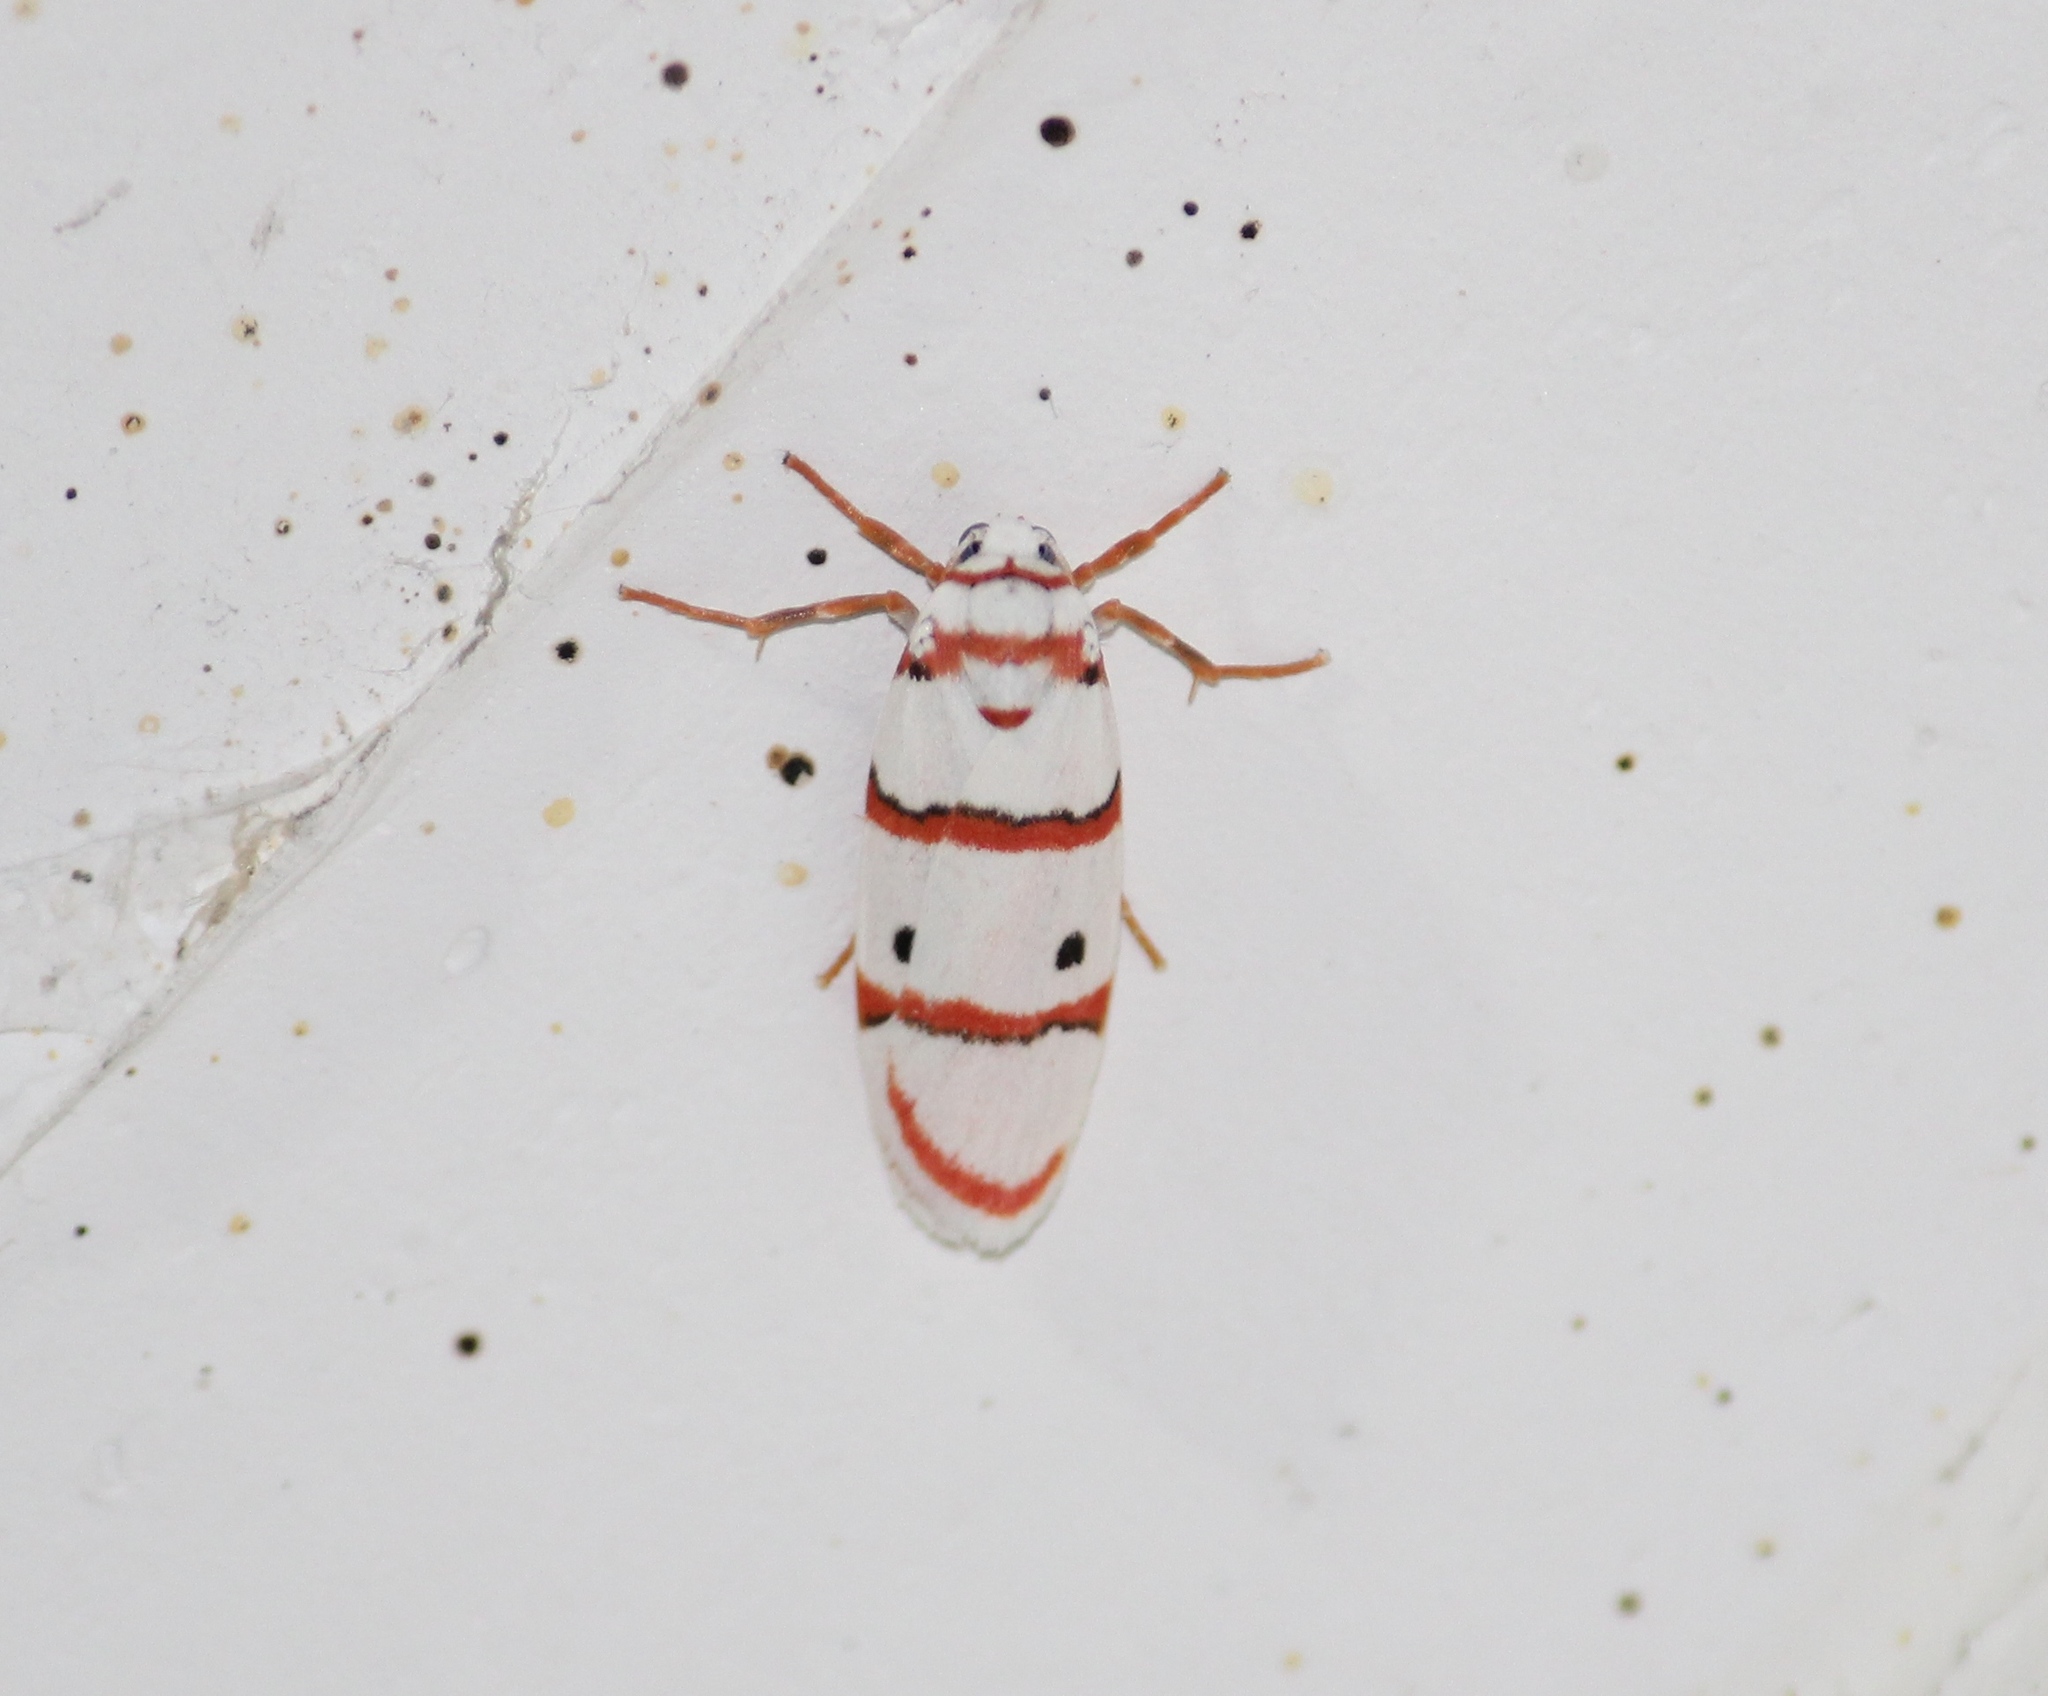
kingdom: Animalia
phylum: Arthropoda
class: Insecta
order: Lepidoptera
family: Erebidae
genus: Cyana
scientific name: Cyana peregrina
